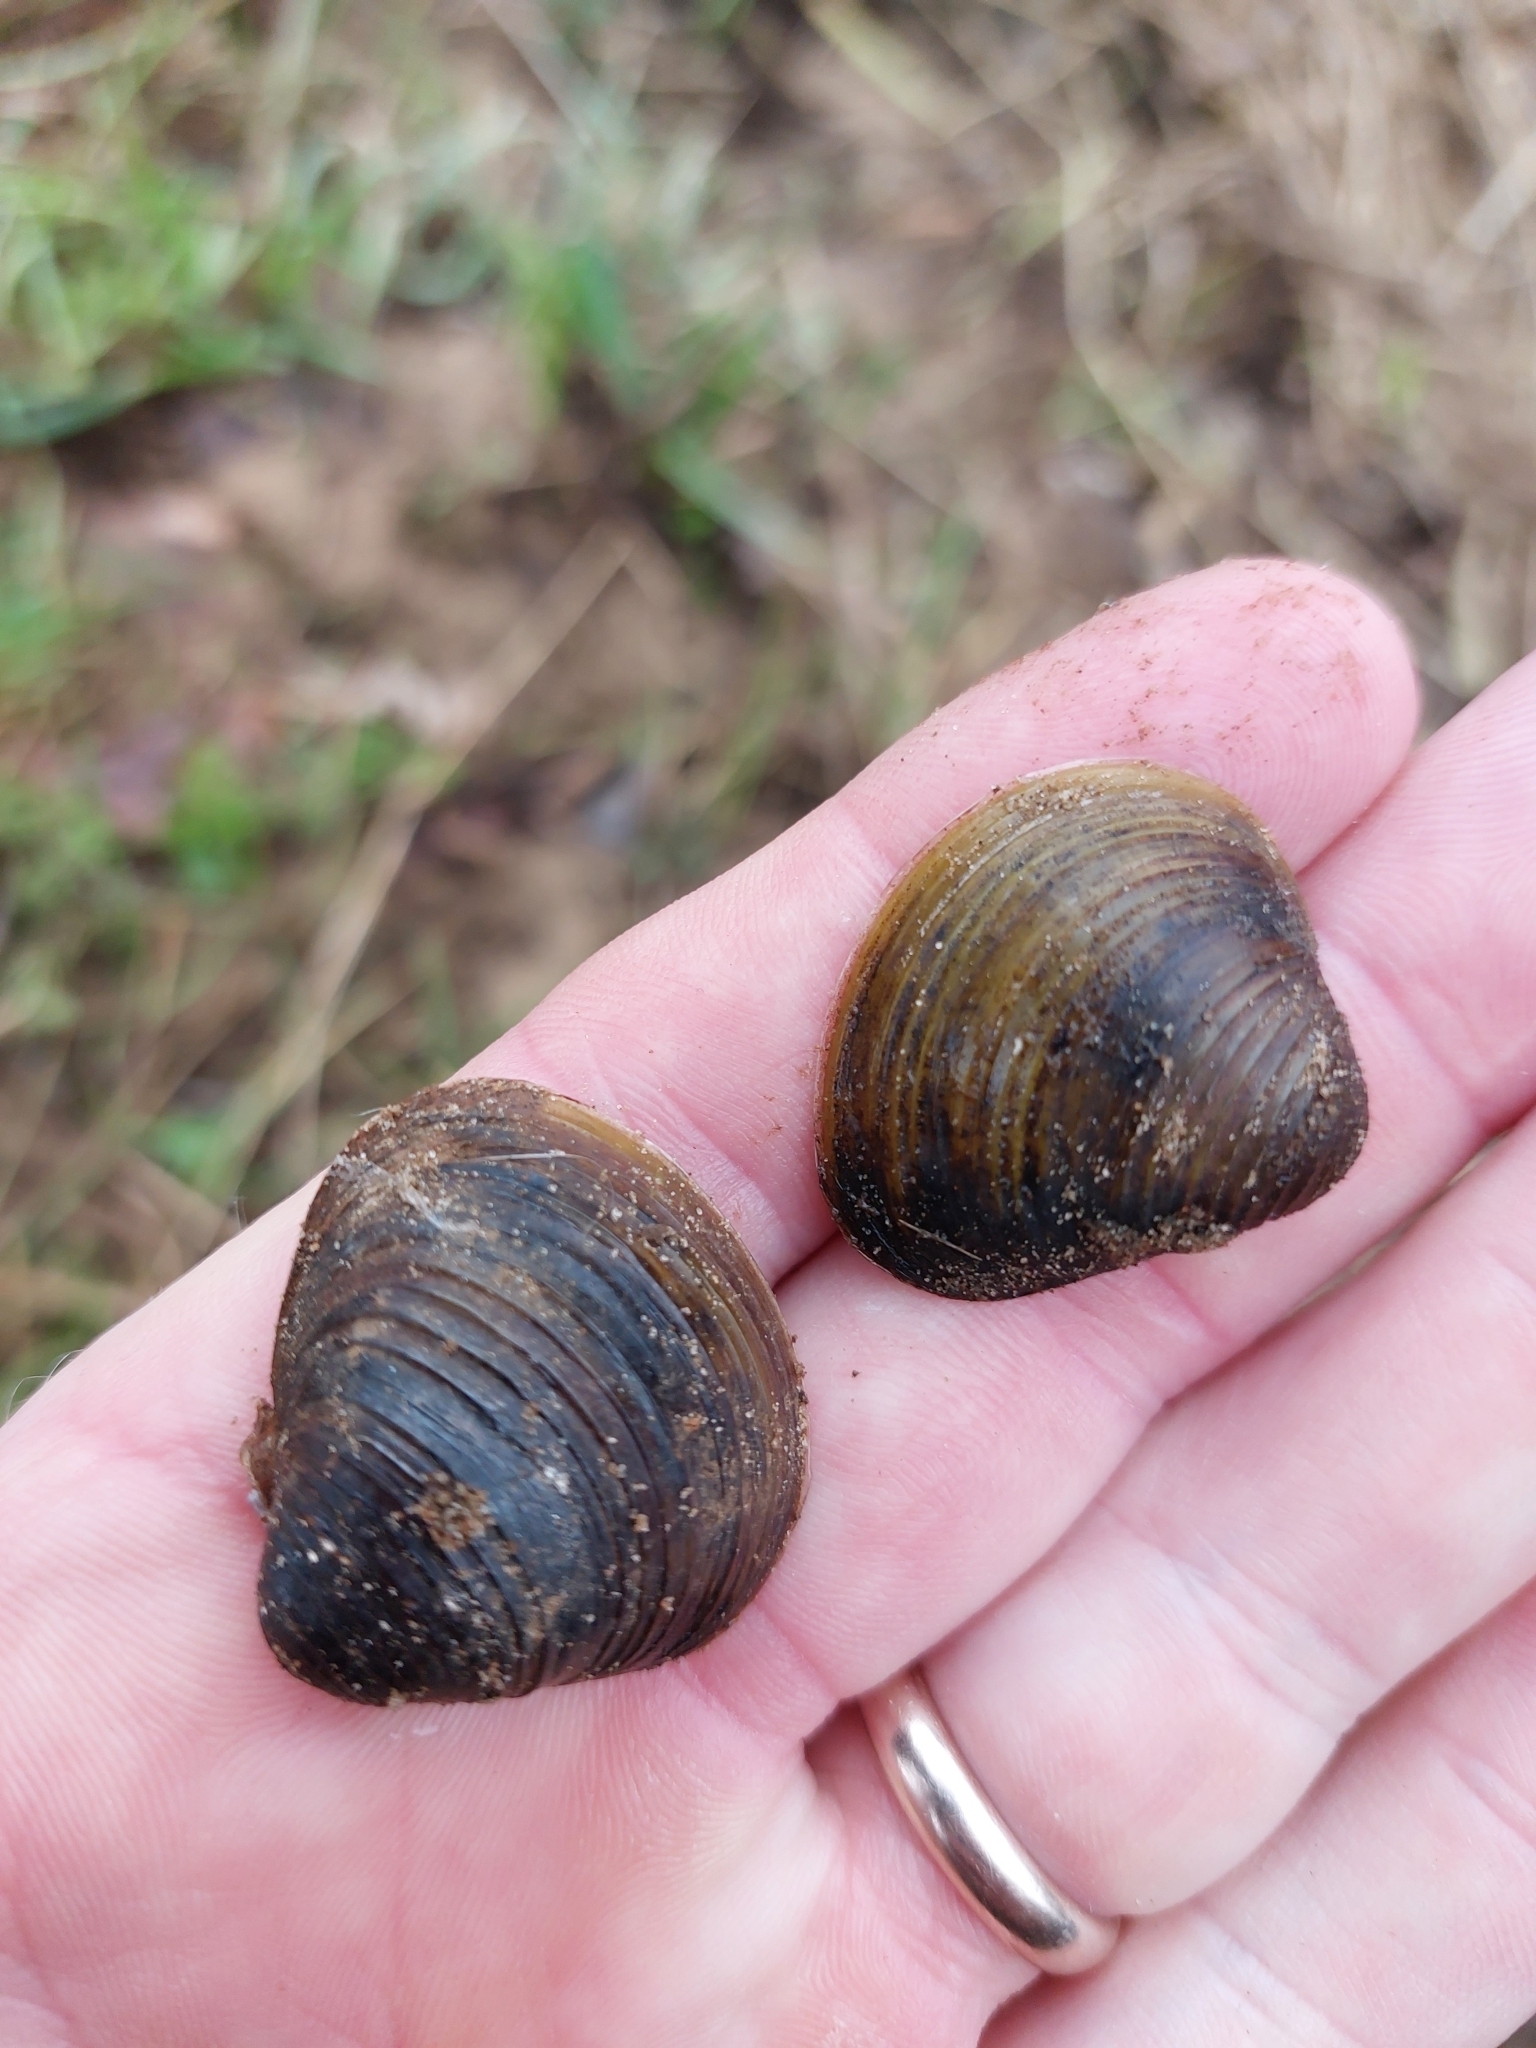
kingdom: Animalia
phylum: Mollusca
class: Bivalvia
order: Venerida
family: Cyrenidae
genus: Corbicula
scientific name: Corbicula fluminea
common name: Asian clam
